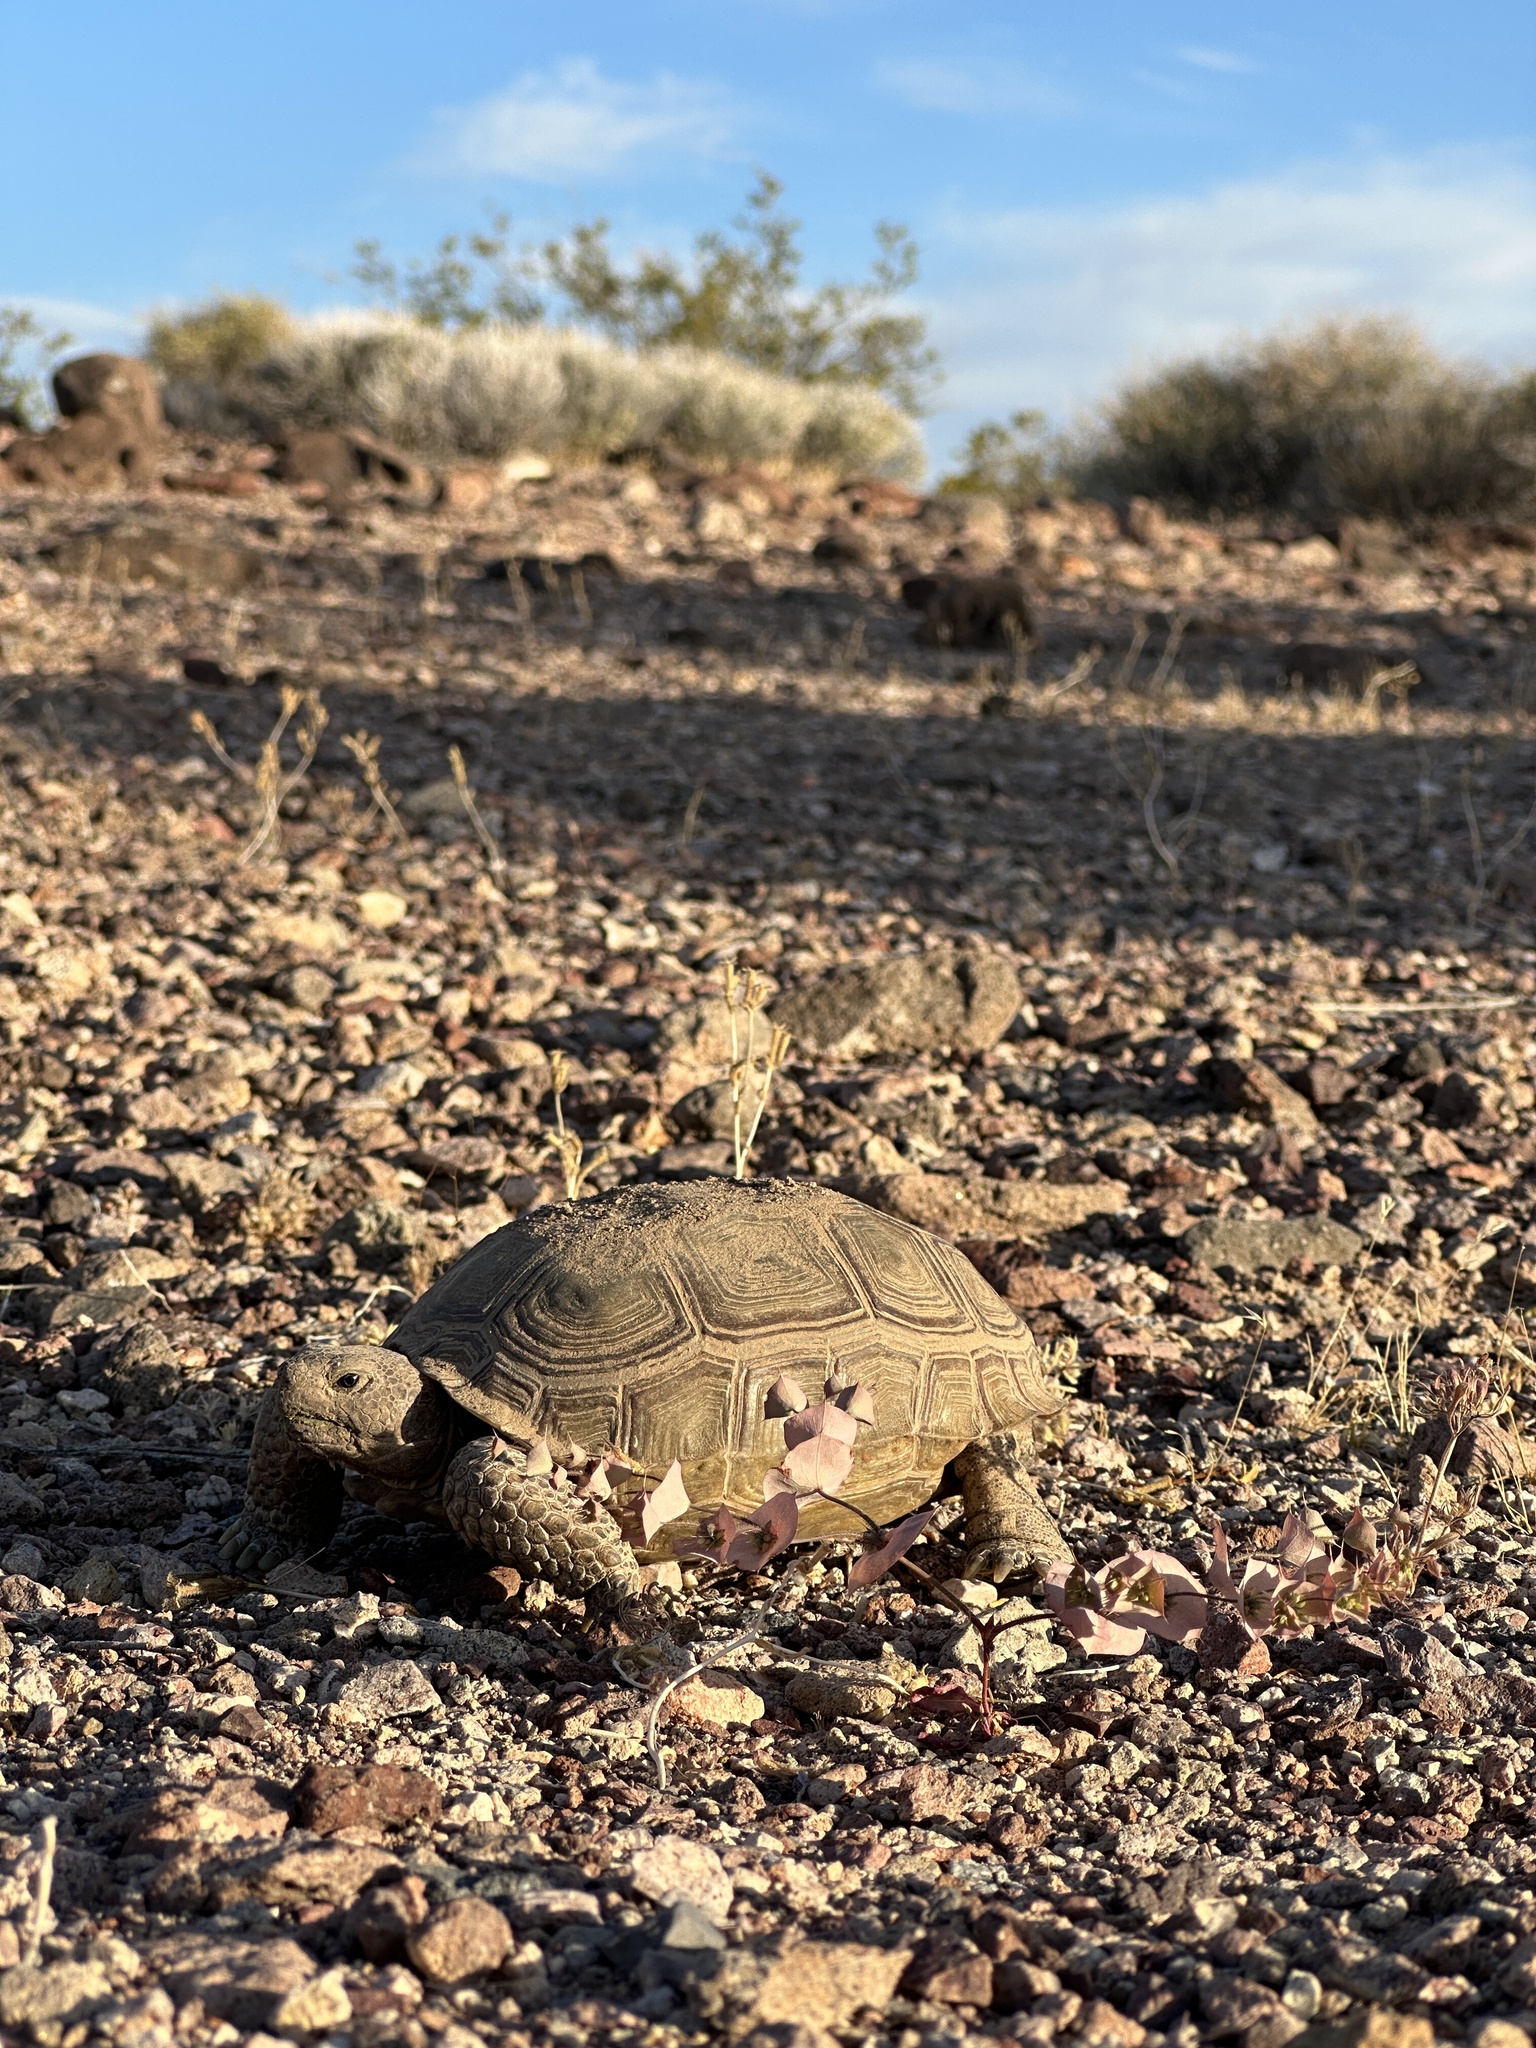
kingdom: Animalia
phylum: Chordata
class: Testudines
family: Testudinidae
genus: Gopherus
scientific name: Gopherus agassizii
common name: Mojave desert tortoise
